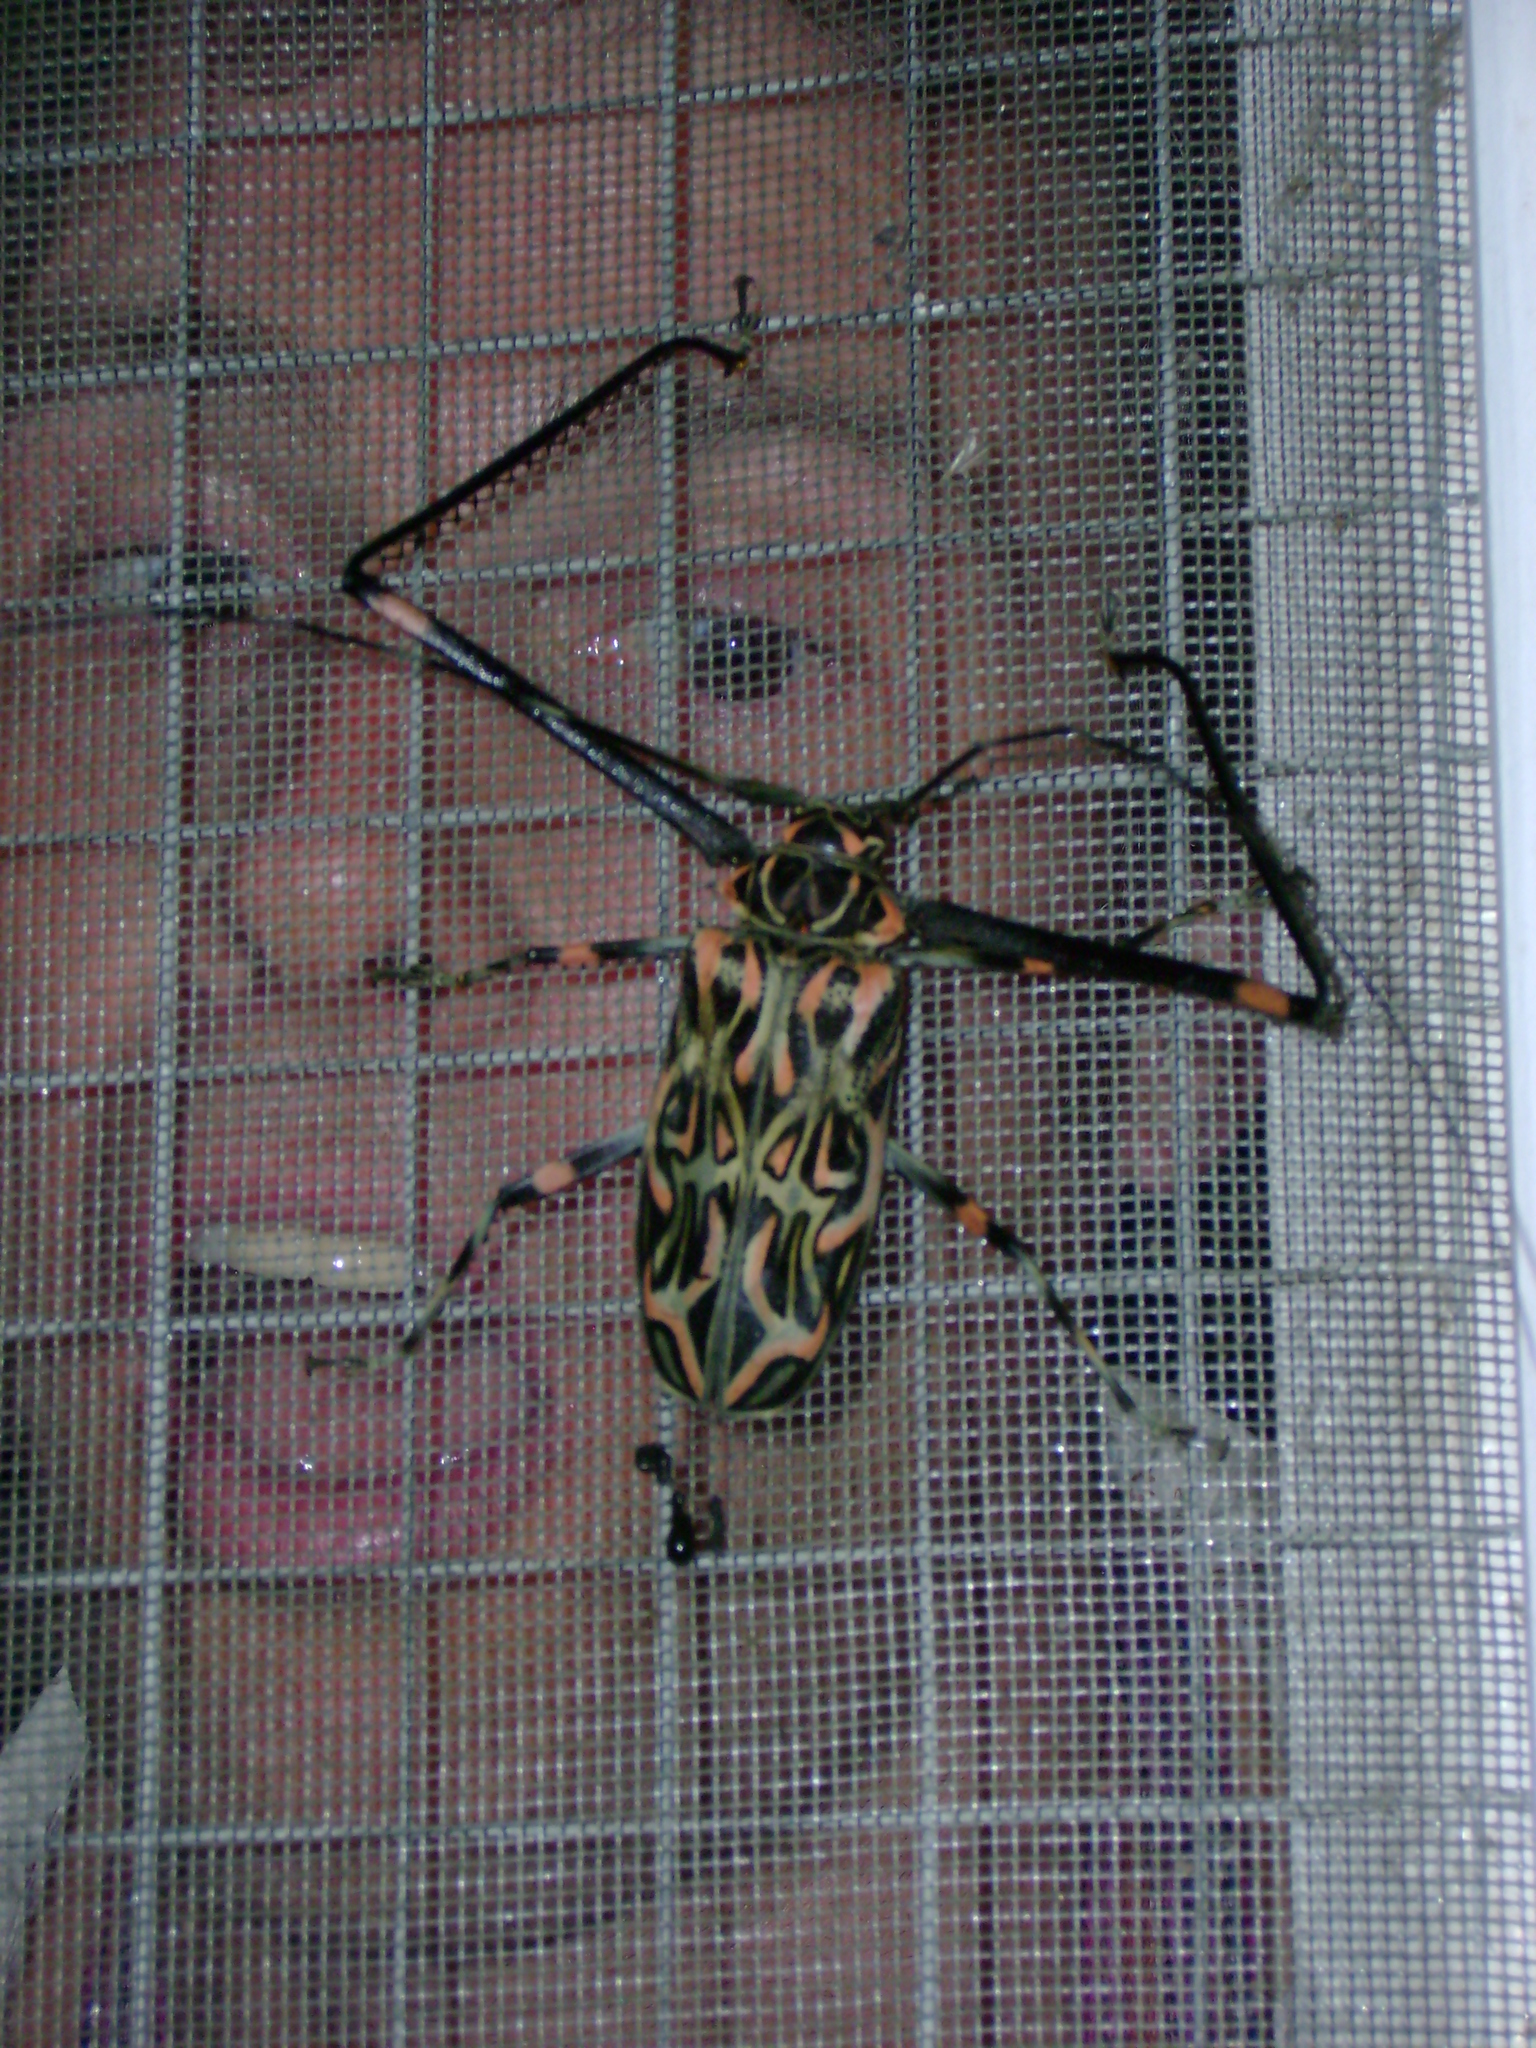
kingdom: Animalia
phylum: Arthropoda
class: Insecta
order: Coleoptera
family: Cerambycidae
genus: Acrocinus
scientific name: Acrocinus longimanus
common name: Arlequin
